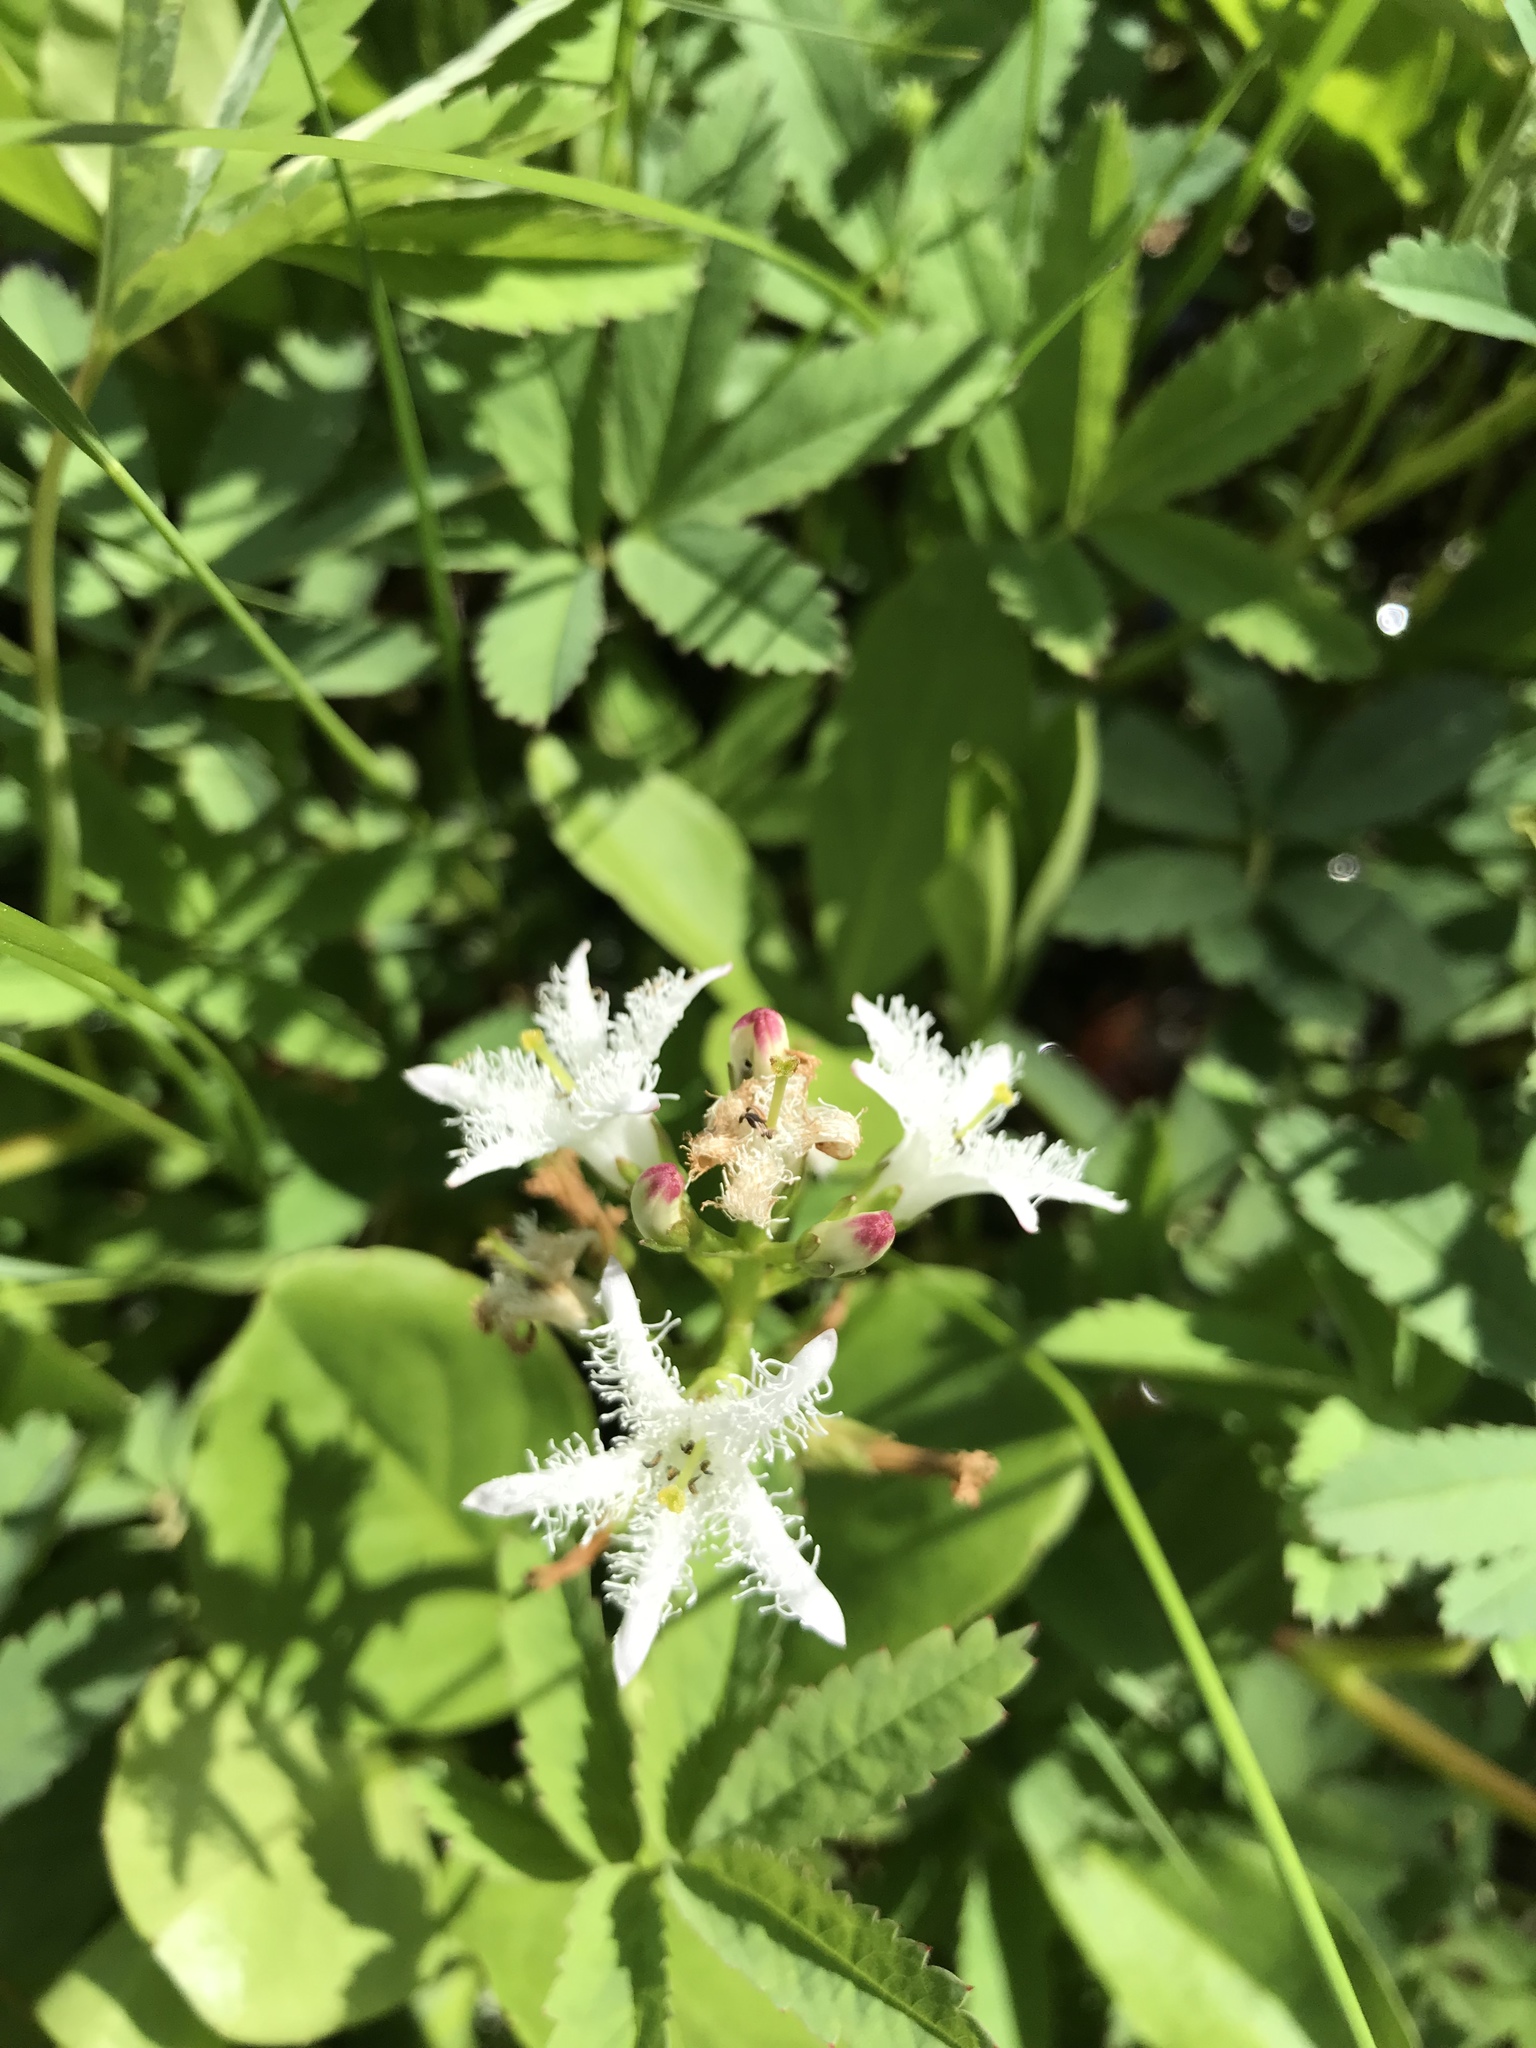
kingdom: Plantae
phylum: Tracheophyta
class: Magnoliopsida
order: Asterales
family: Menyanthaceae
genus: Menyanthes
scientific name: Menyanthes trifoliata
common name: Bogbean
